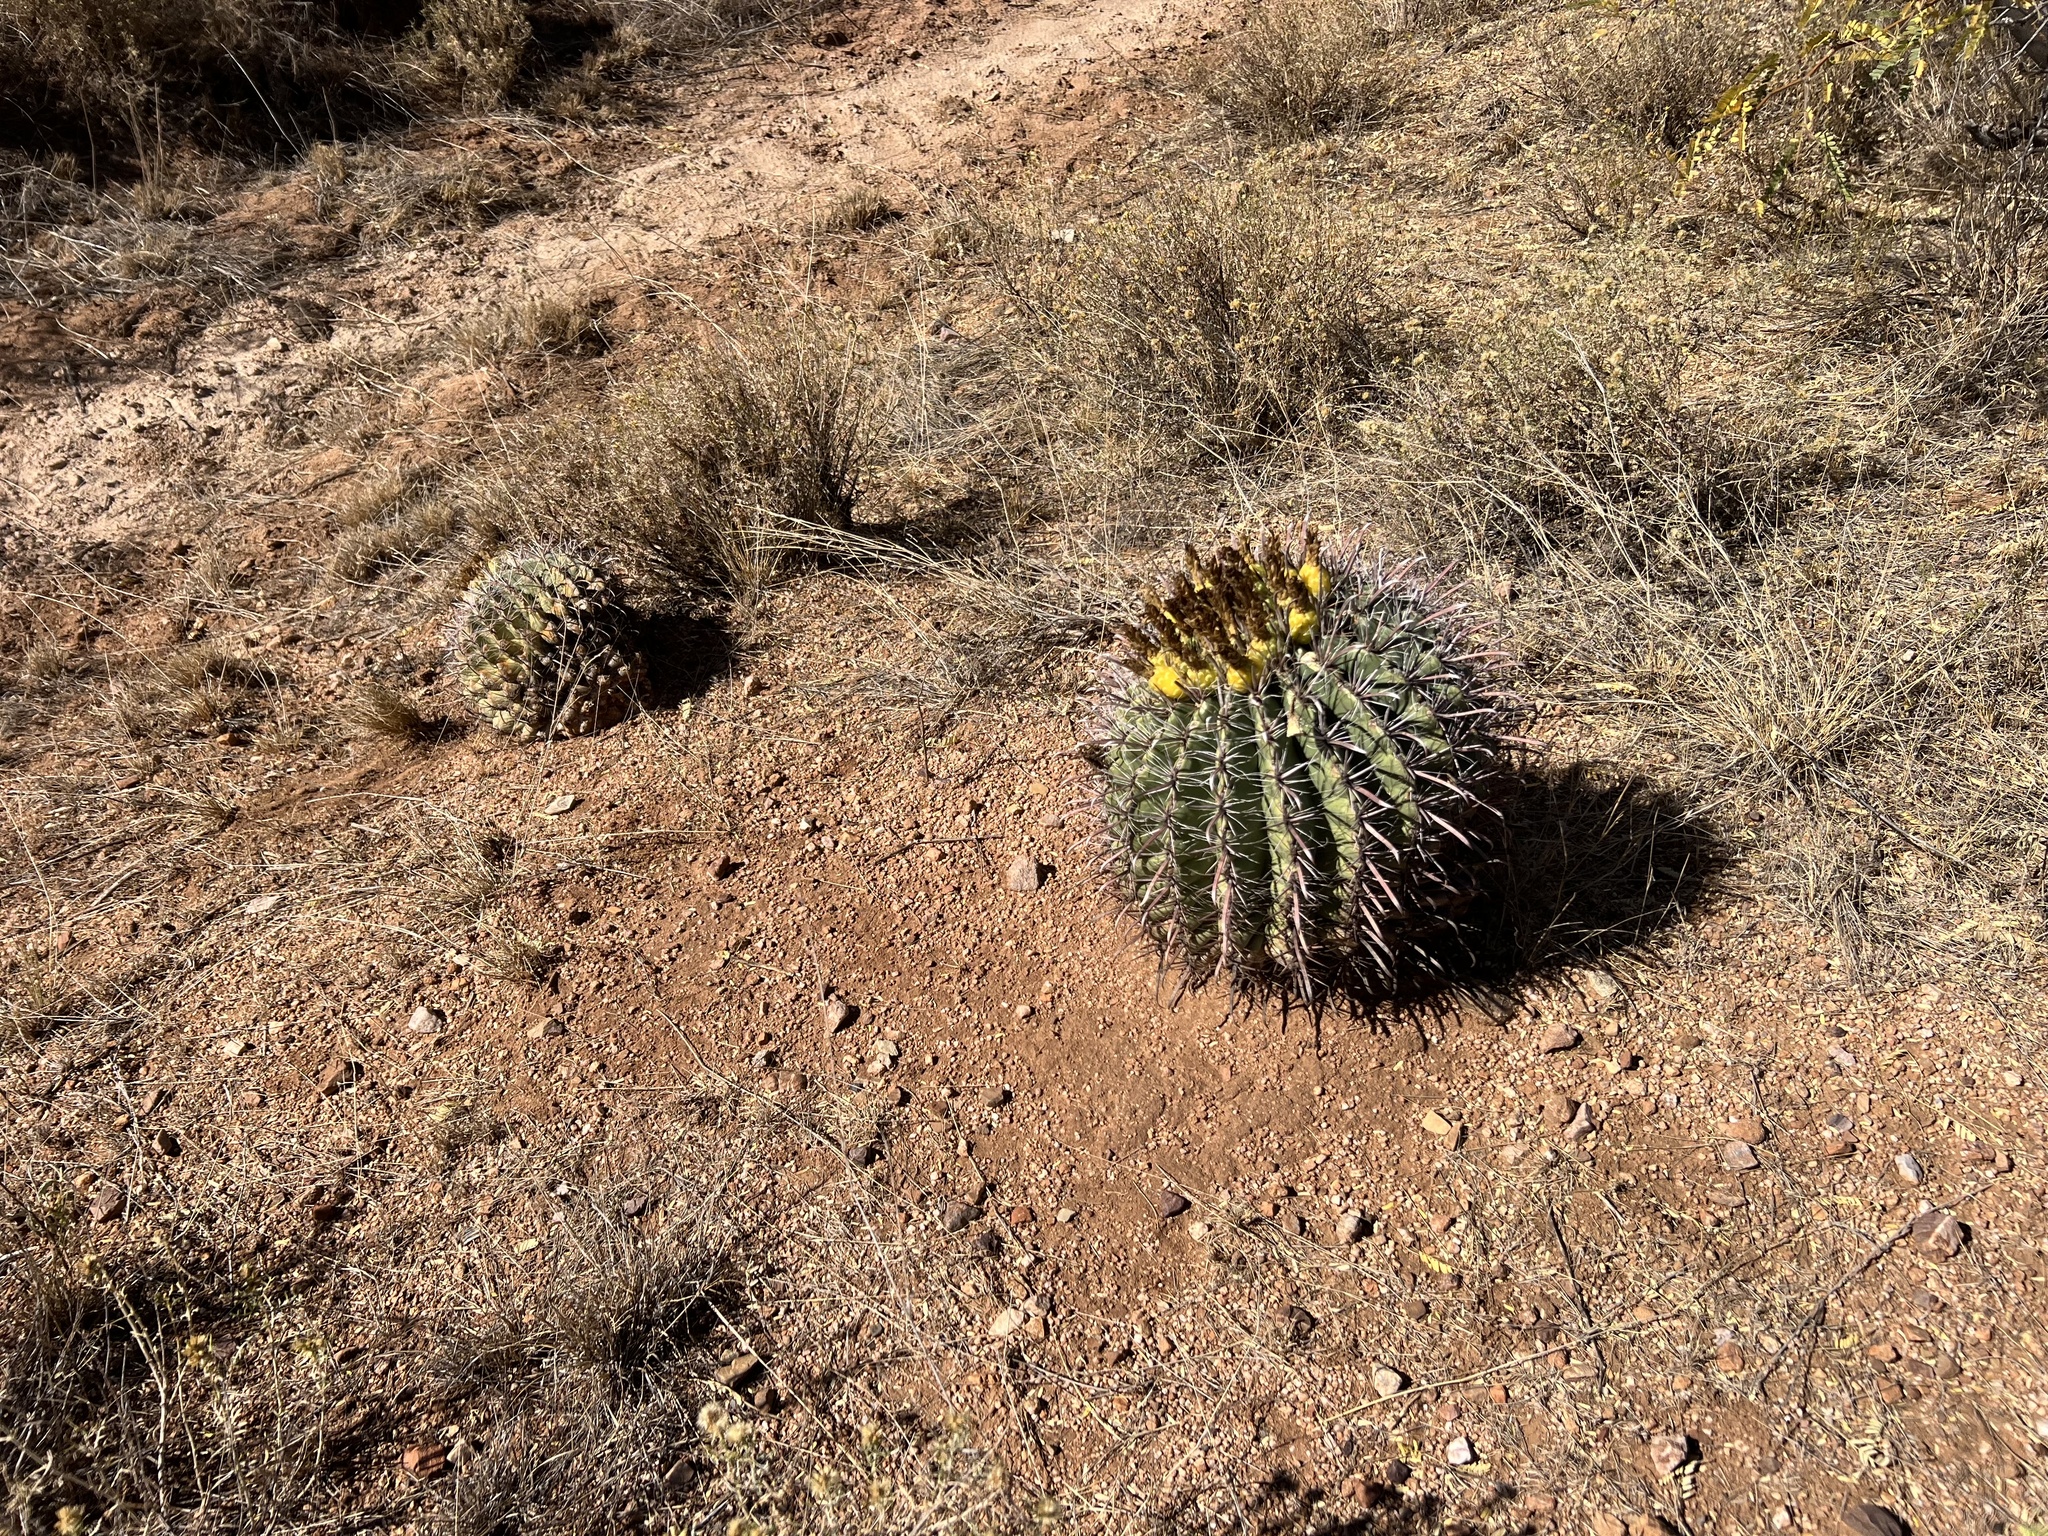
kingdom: Plantae
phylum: Tracheophyta
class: Magnoliopsida
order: Caryophyllales
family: Cactaceae
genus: Ferocactus
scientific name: Ferocactus wislizeni
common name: Candy barrel cactus
